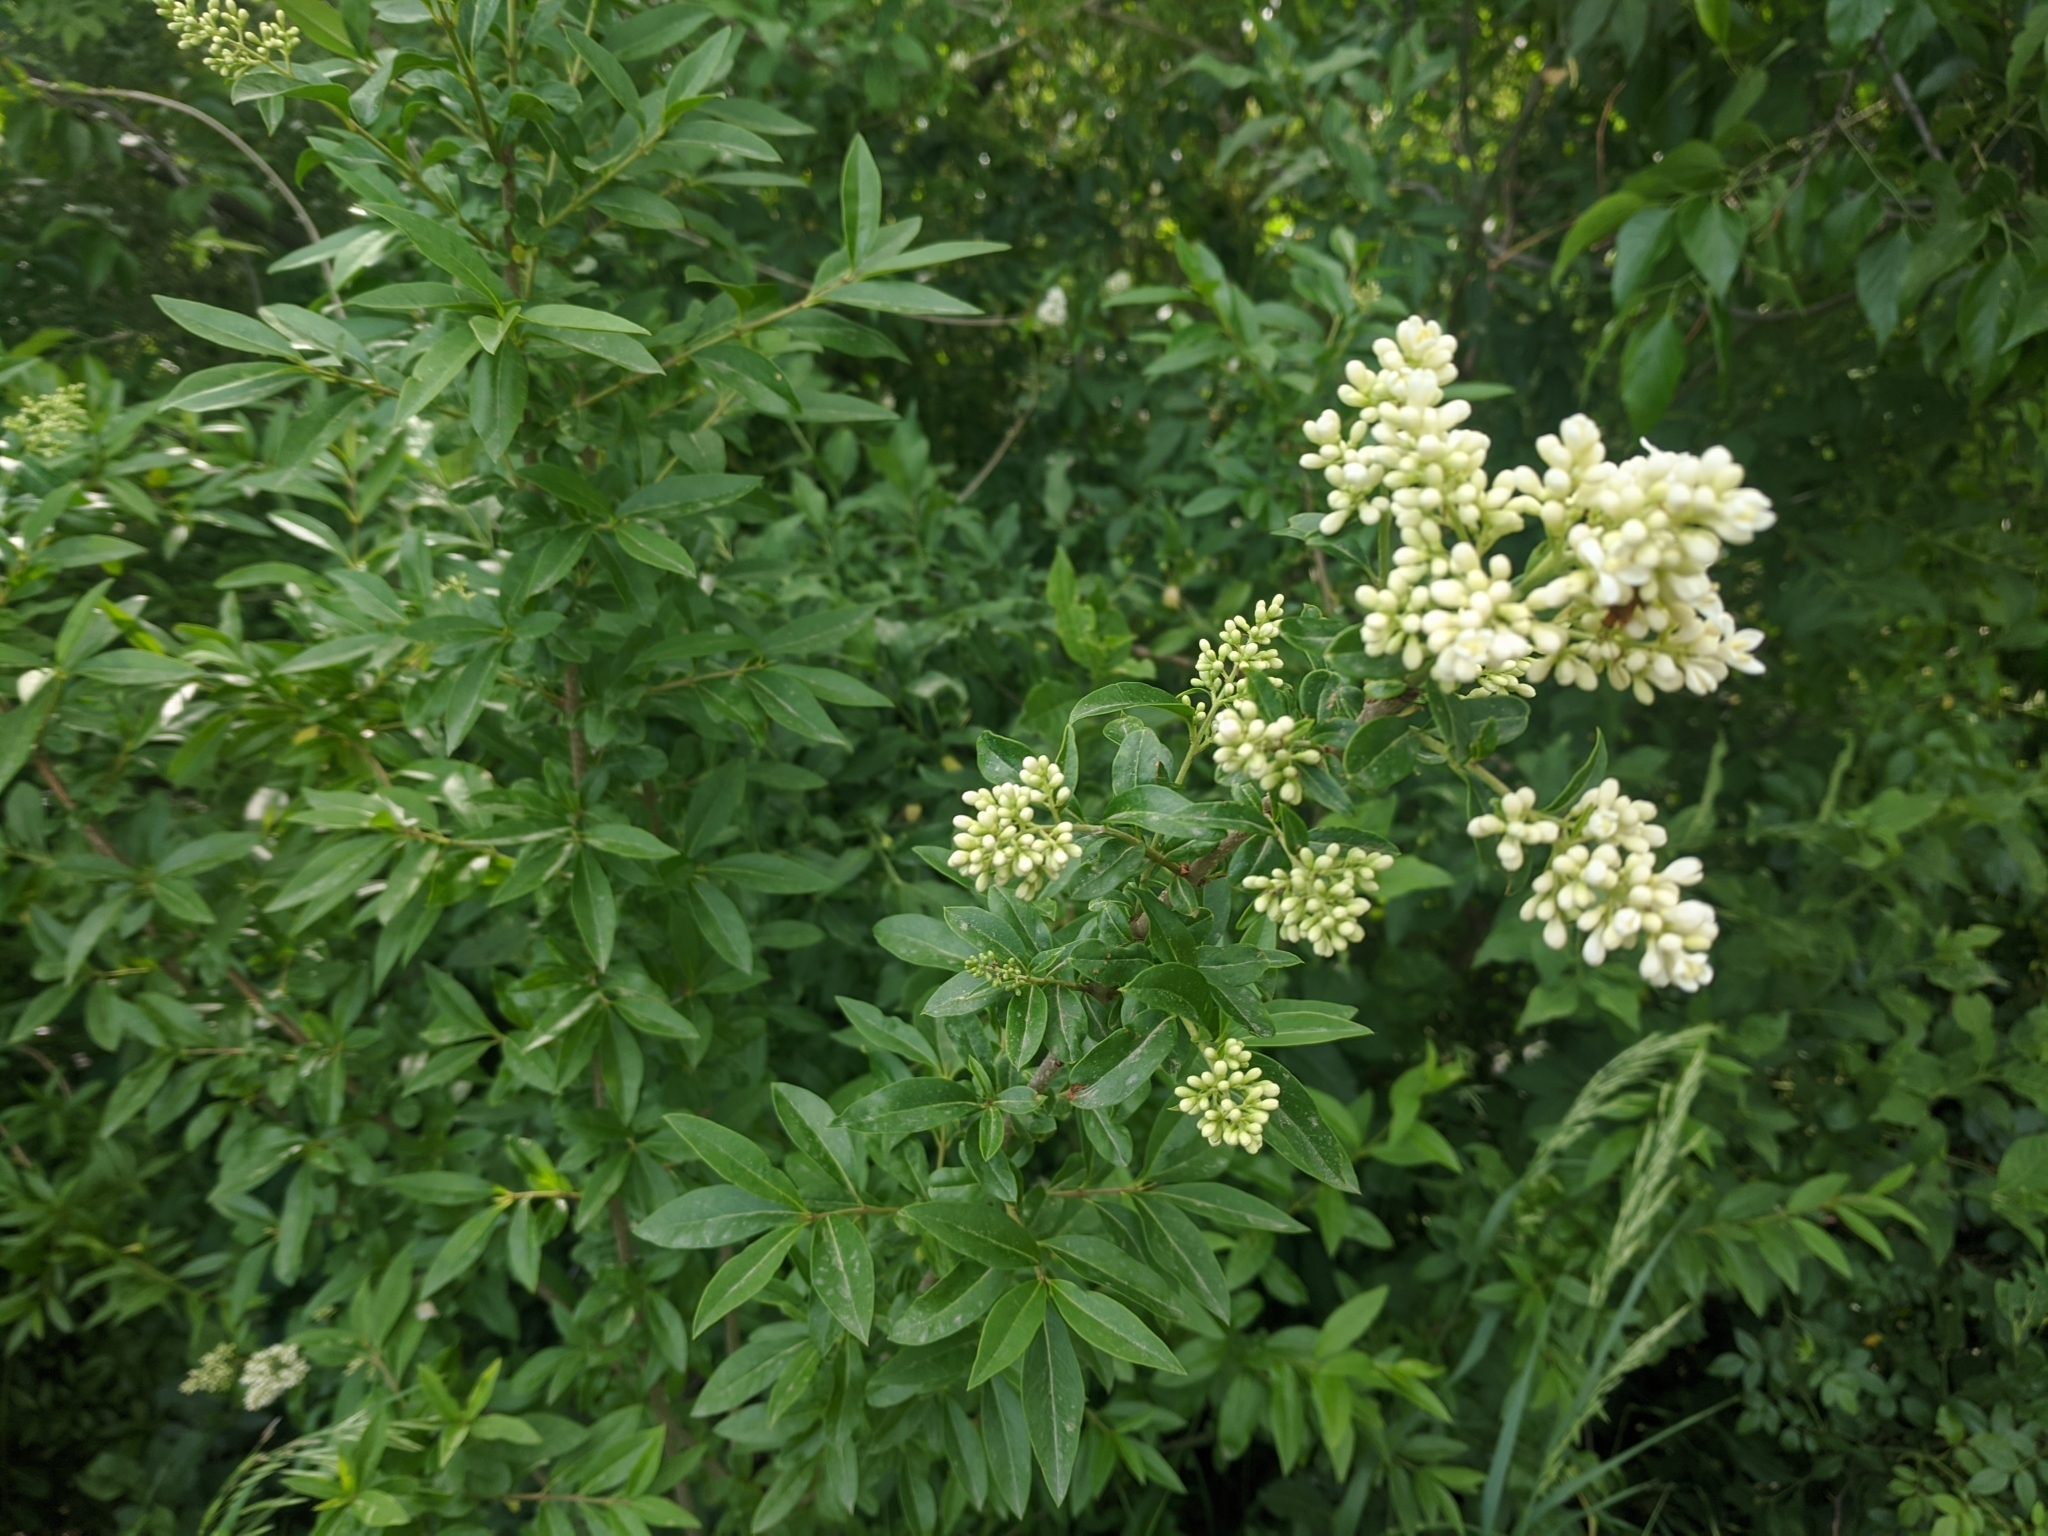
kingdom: Plantae
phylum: Tracheophyta
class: Magnoliopsida
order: Lamiales
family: Oleaceae
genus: Ligustrum
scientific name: Ligustrum vulgare
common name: Wild privet
